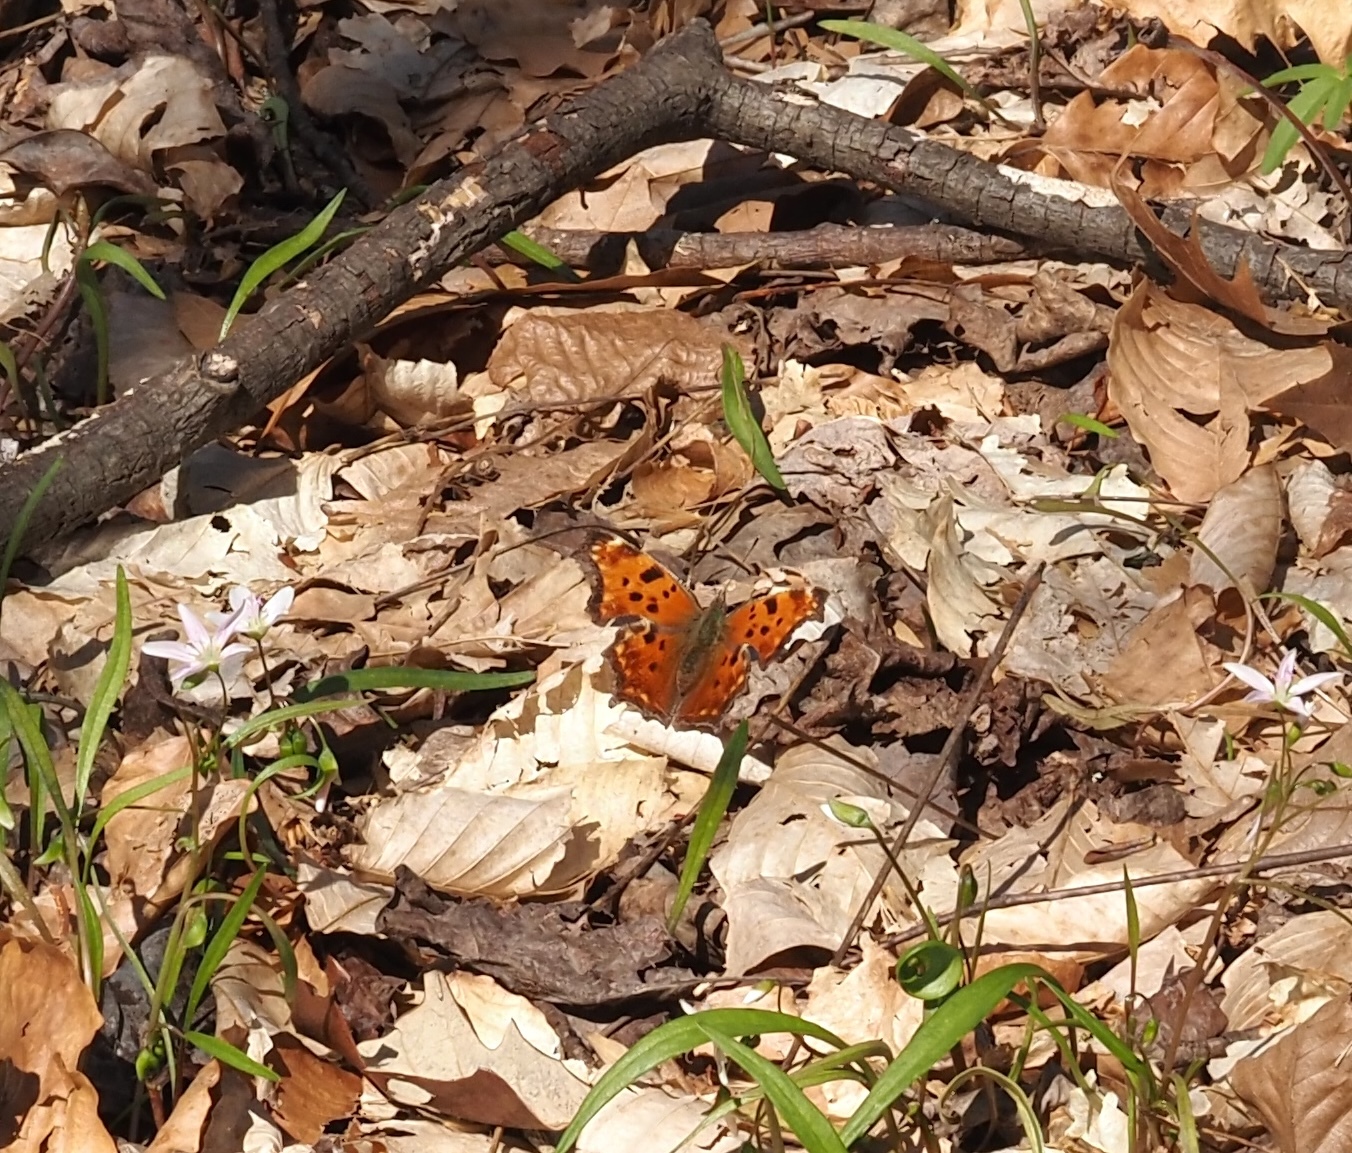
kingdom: Animalia
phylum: Arthropoda
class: Insecta
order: Lepidoptera
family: Nymphalidae
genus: Polygonia
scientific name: Polygonia comma
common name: Eastern comma
